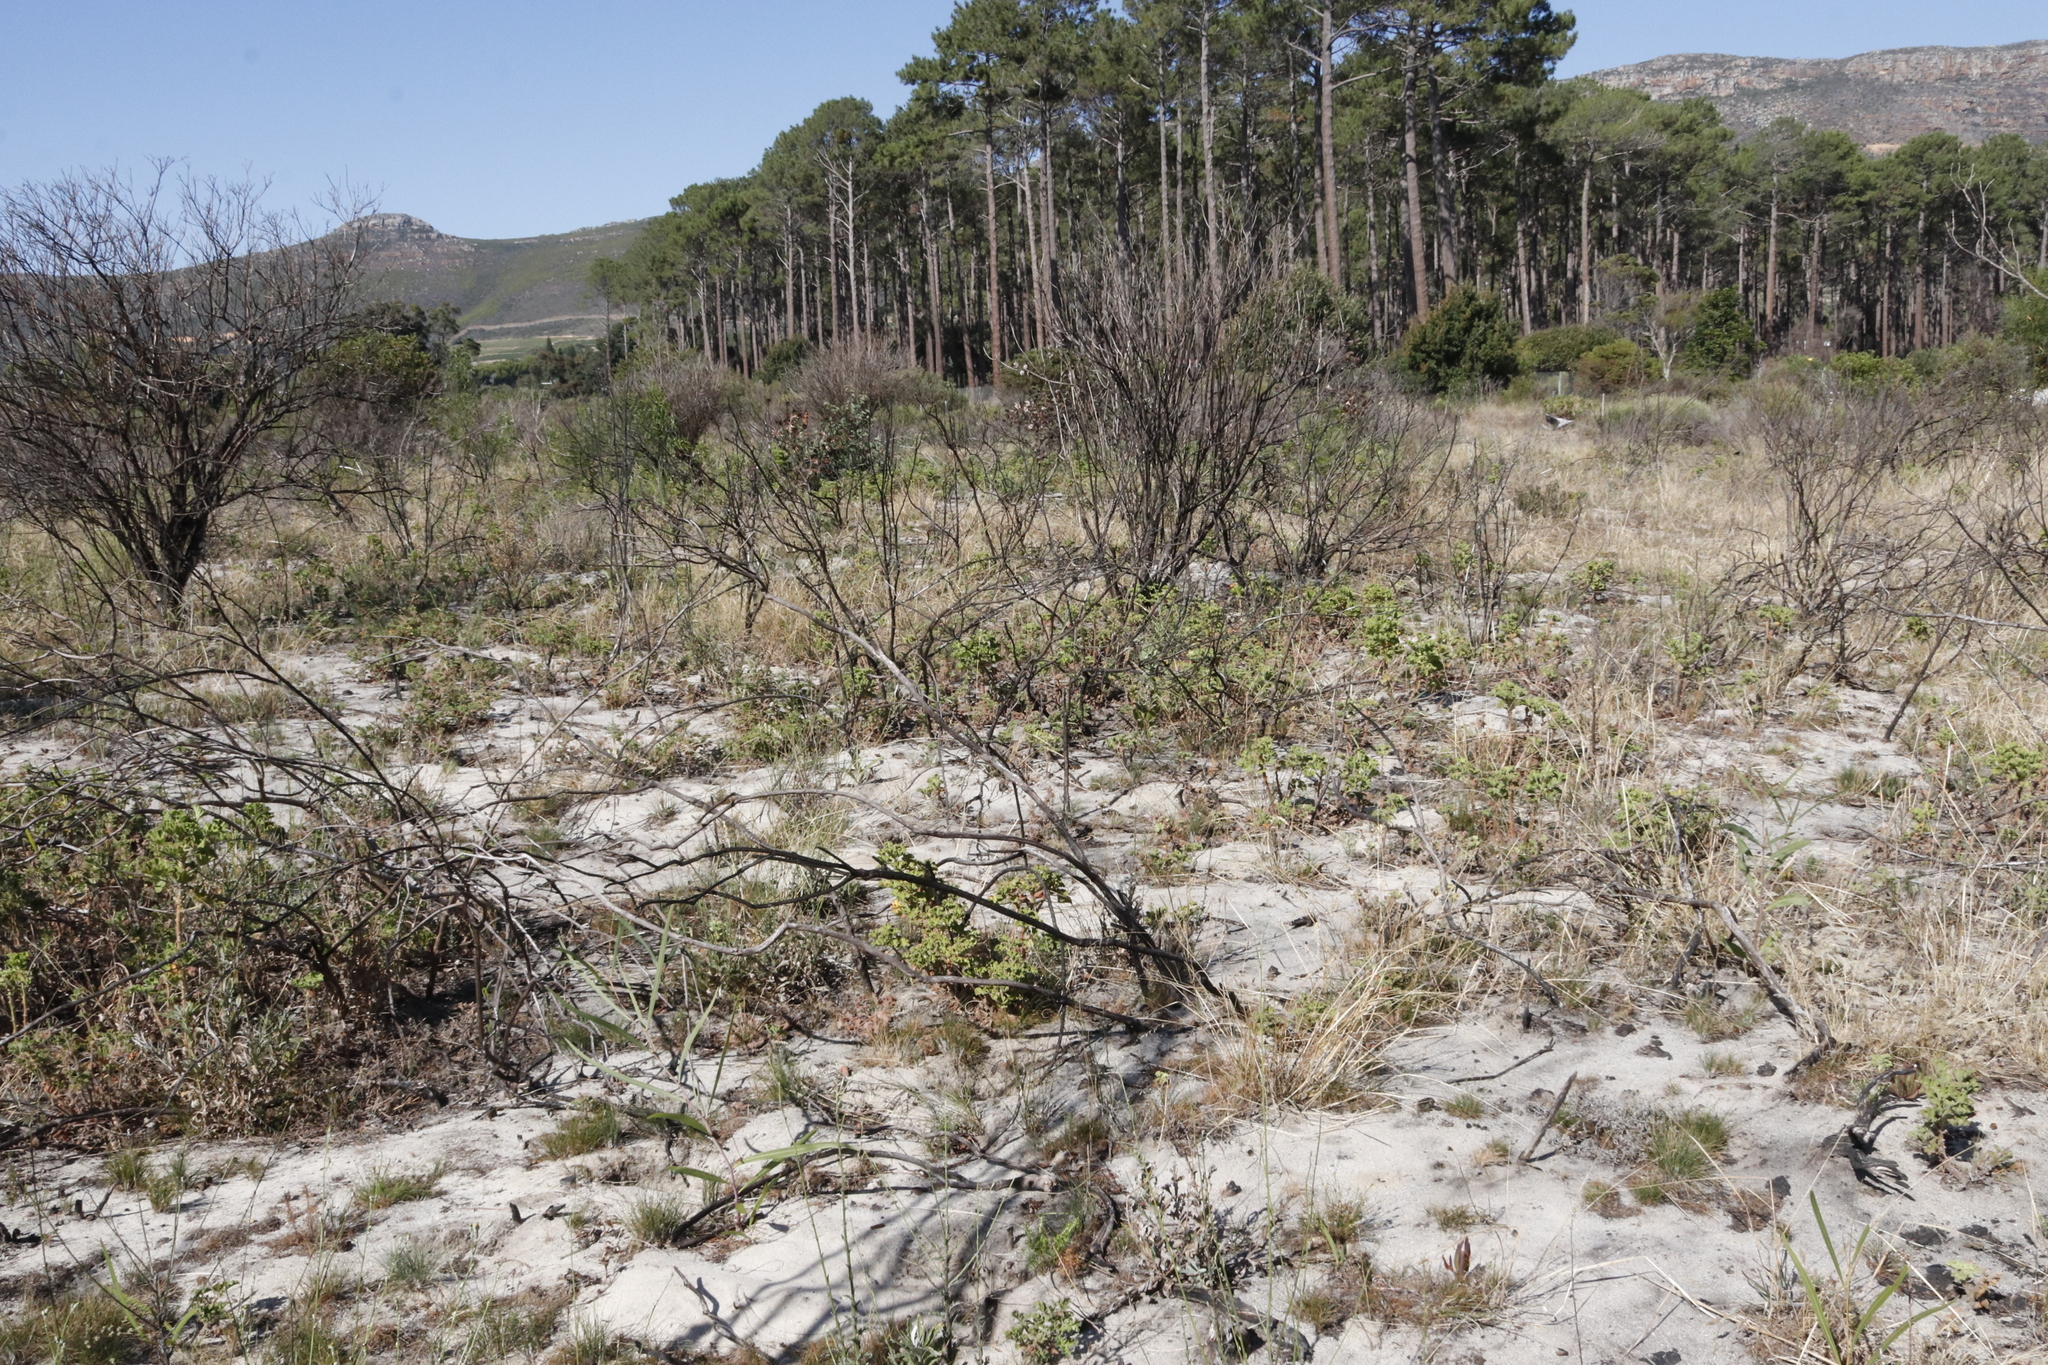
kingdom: Plantae
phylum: Tracheophyta
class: Magnoliopsida
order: Geraniales
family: Geraniaceae
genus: Pelargonium
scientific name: Pelargonium cucullatum
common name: Tree pelargonium
